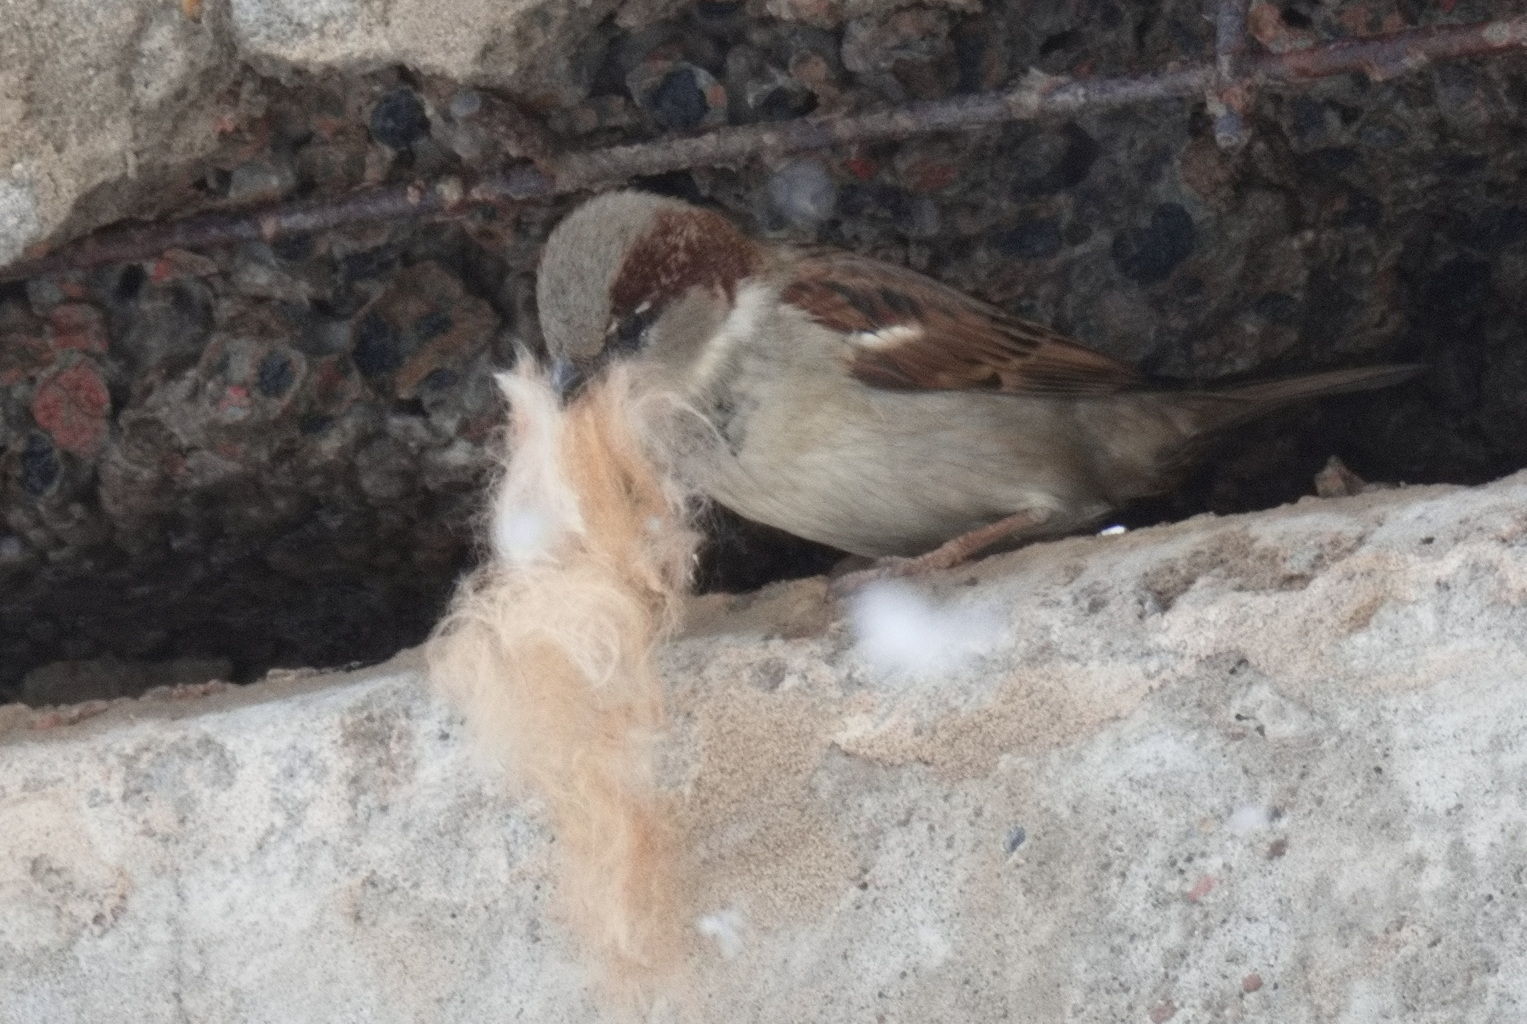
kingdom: Animalia
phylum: Chordata
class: Aves
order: Passeriformes
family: Passeridae
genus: Passer
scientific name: Passer domesticus
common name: House sparrow
